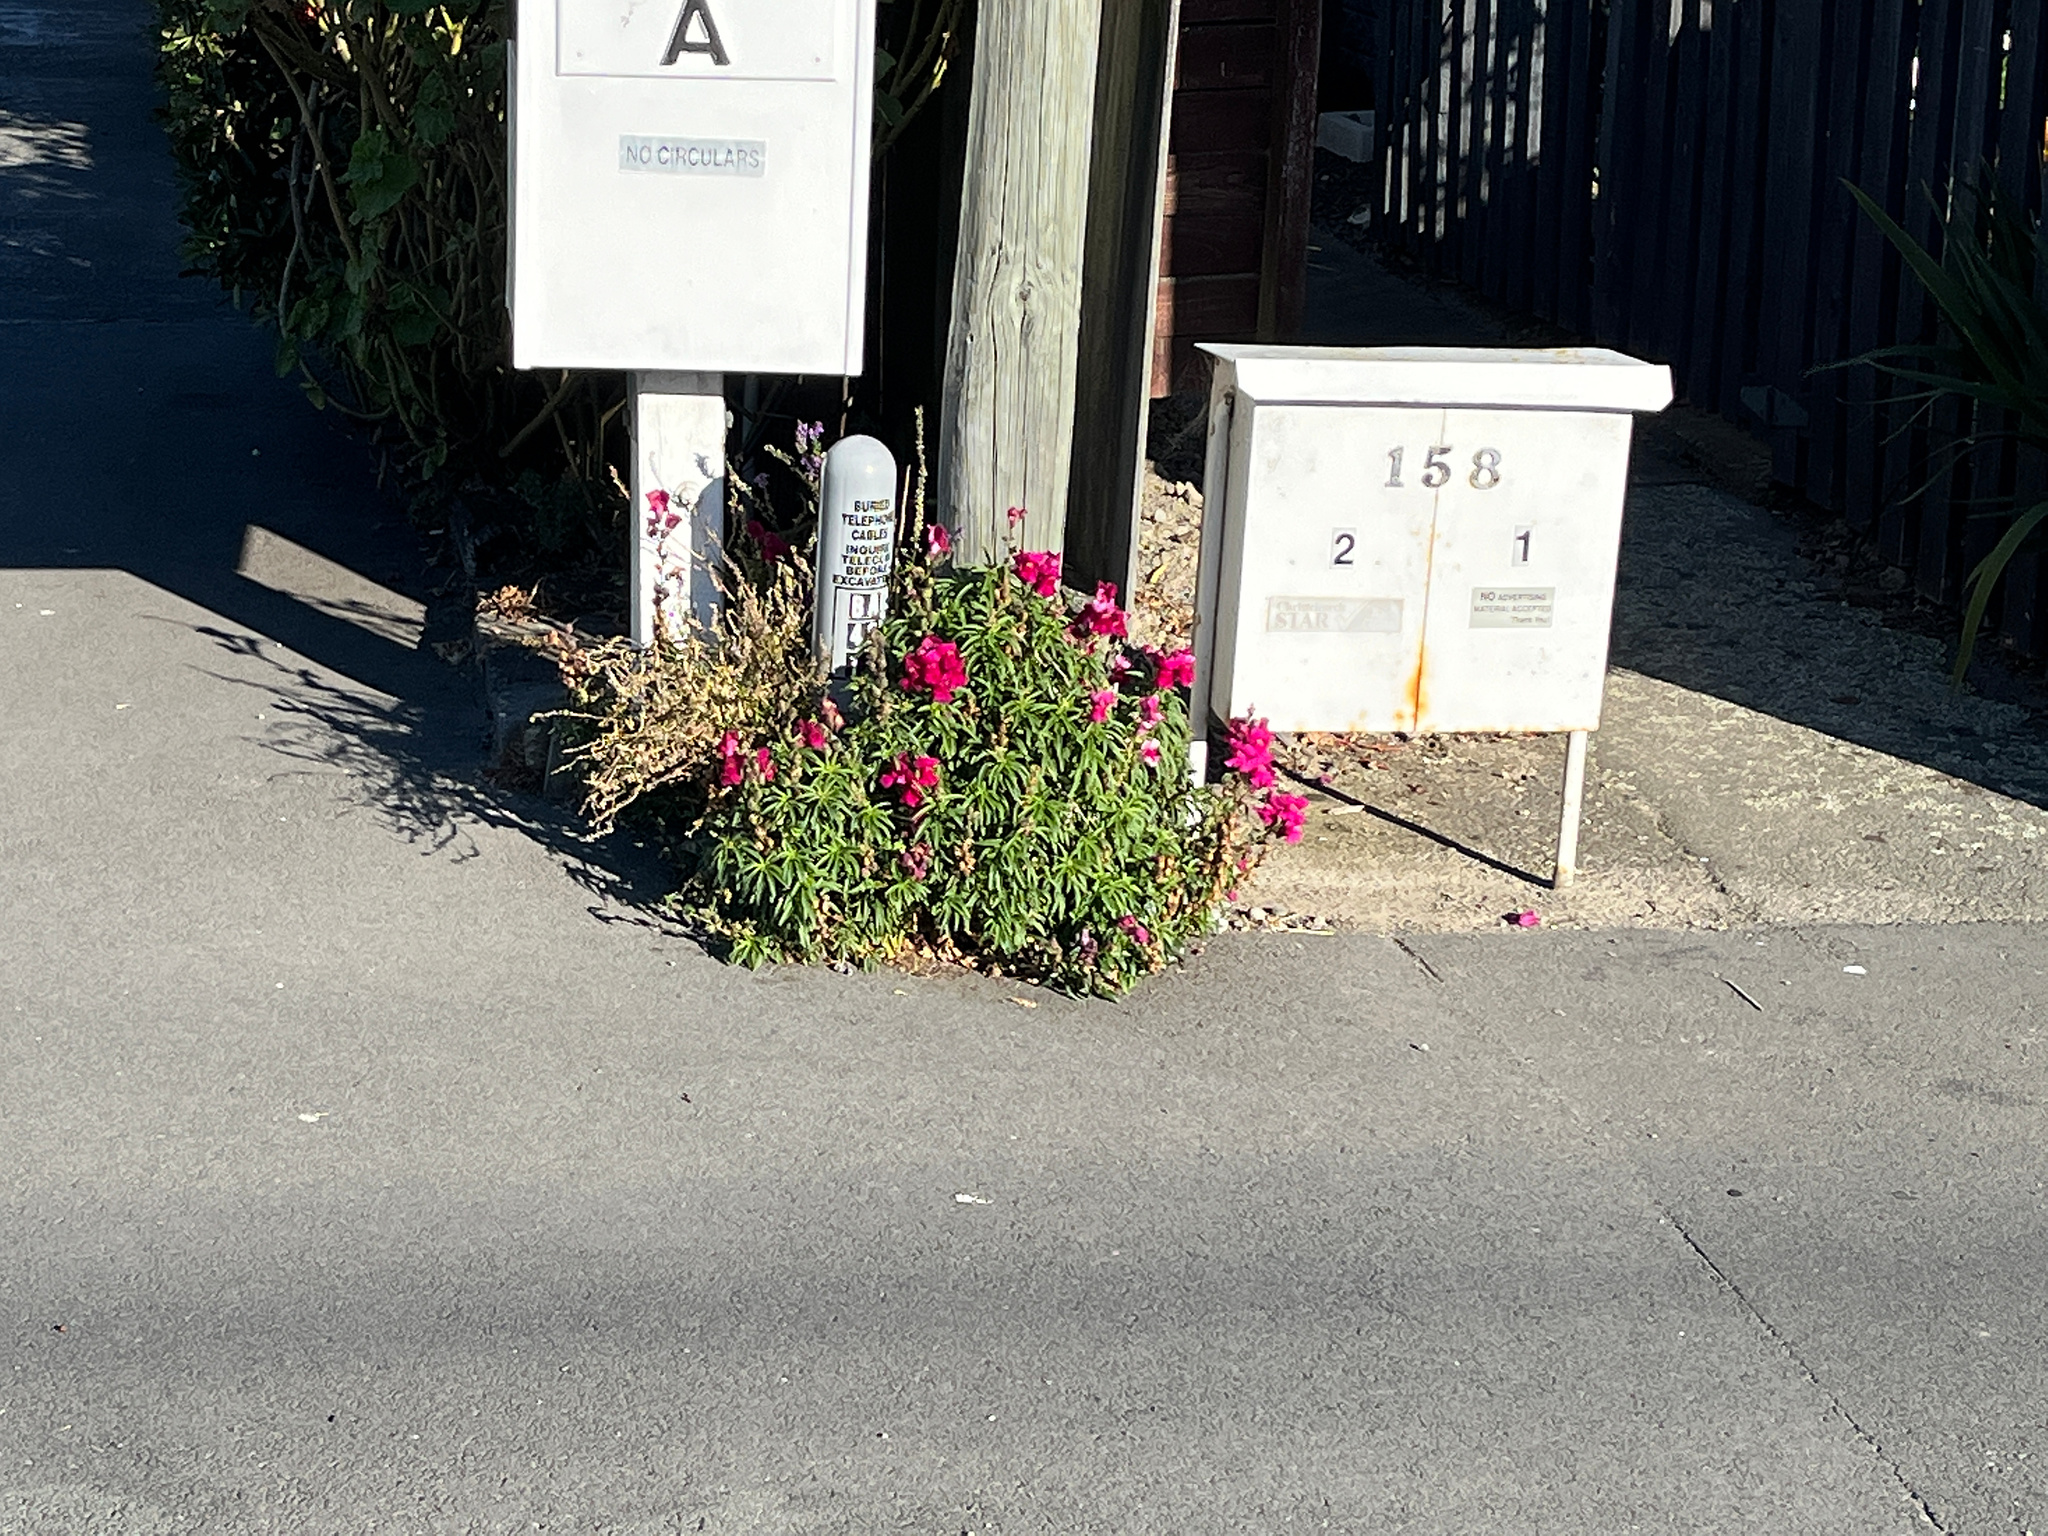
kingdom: Plantae
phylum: Tracheophyta
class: Magnoliopsida
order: Lamiales
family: Plantaginaceae
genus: Antirrhinum
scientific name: Antirrhinum majus
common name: Snapdragon
